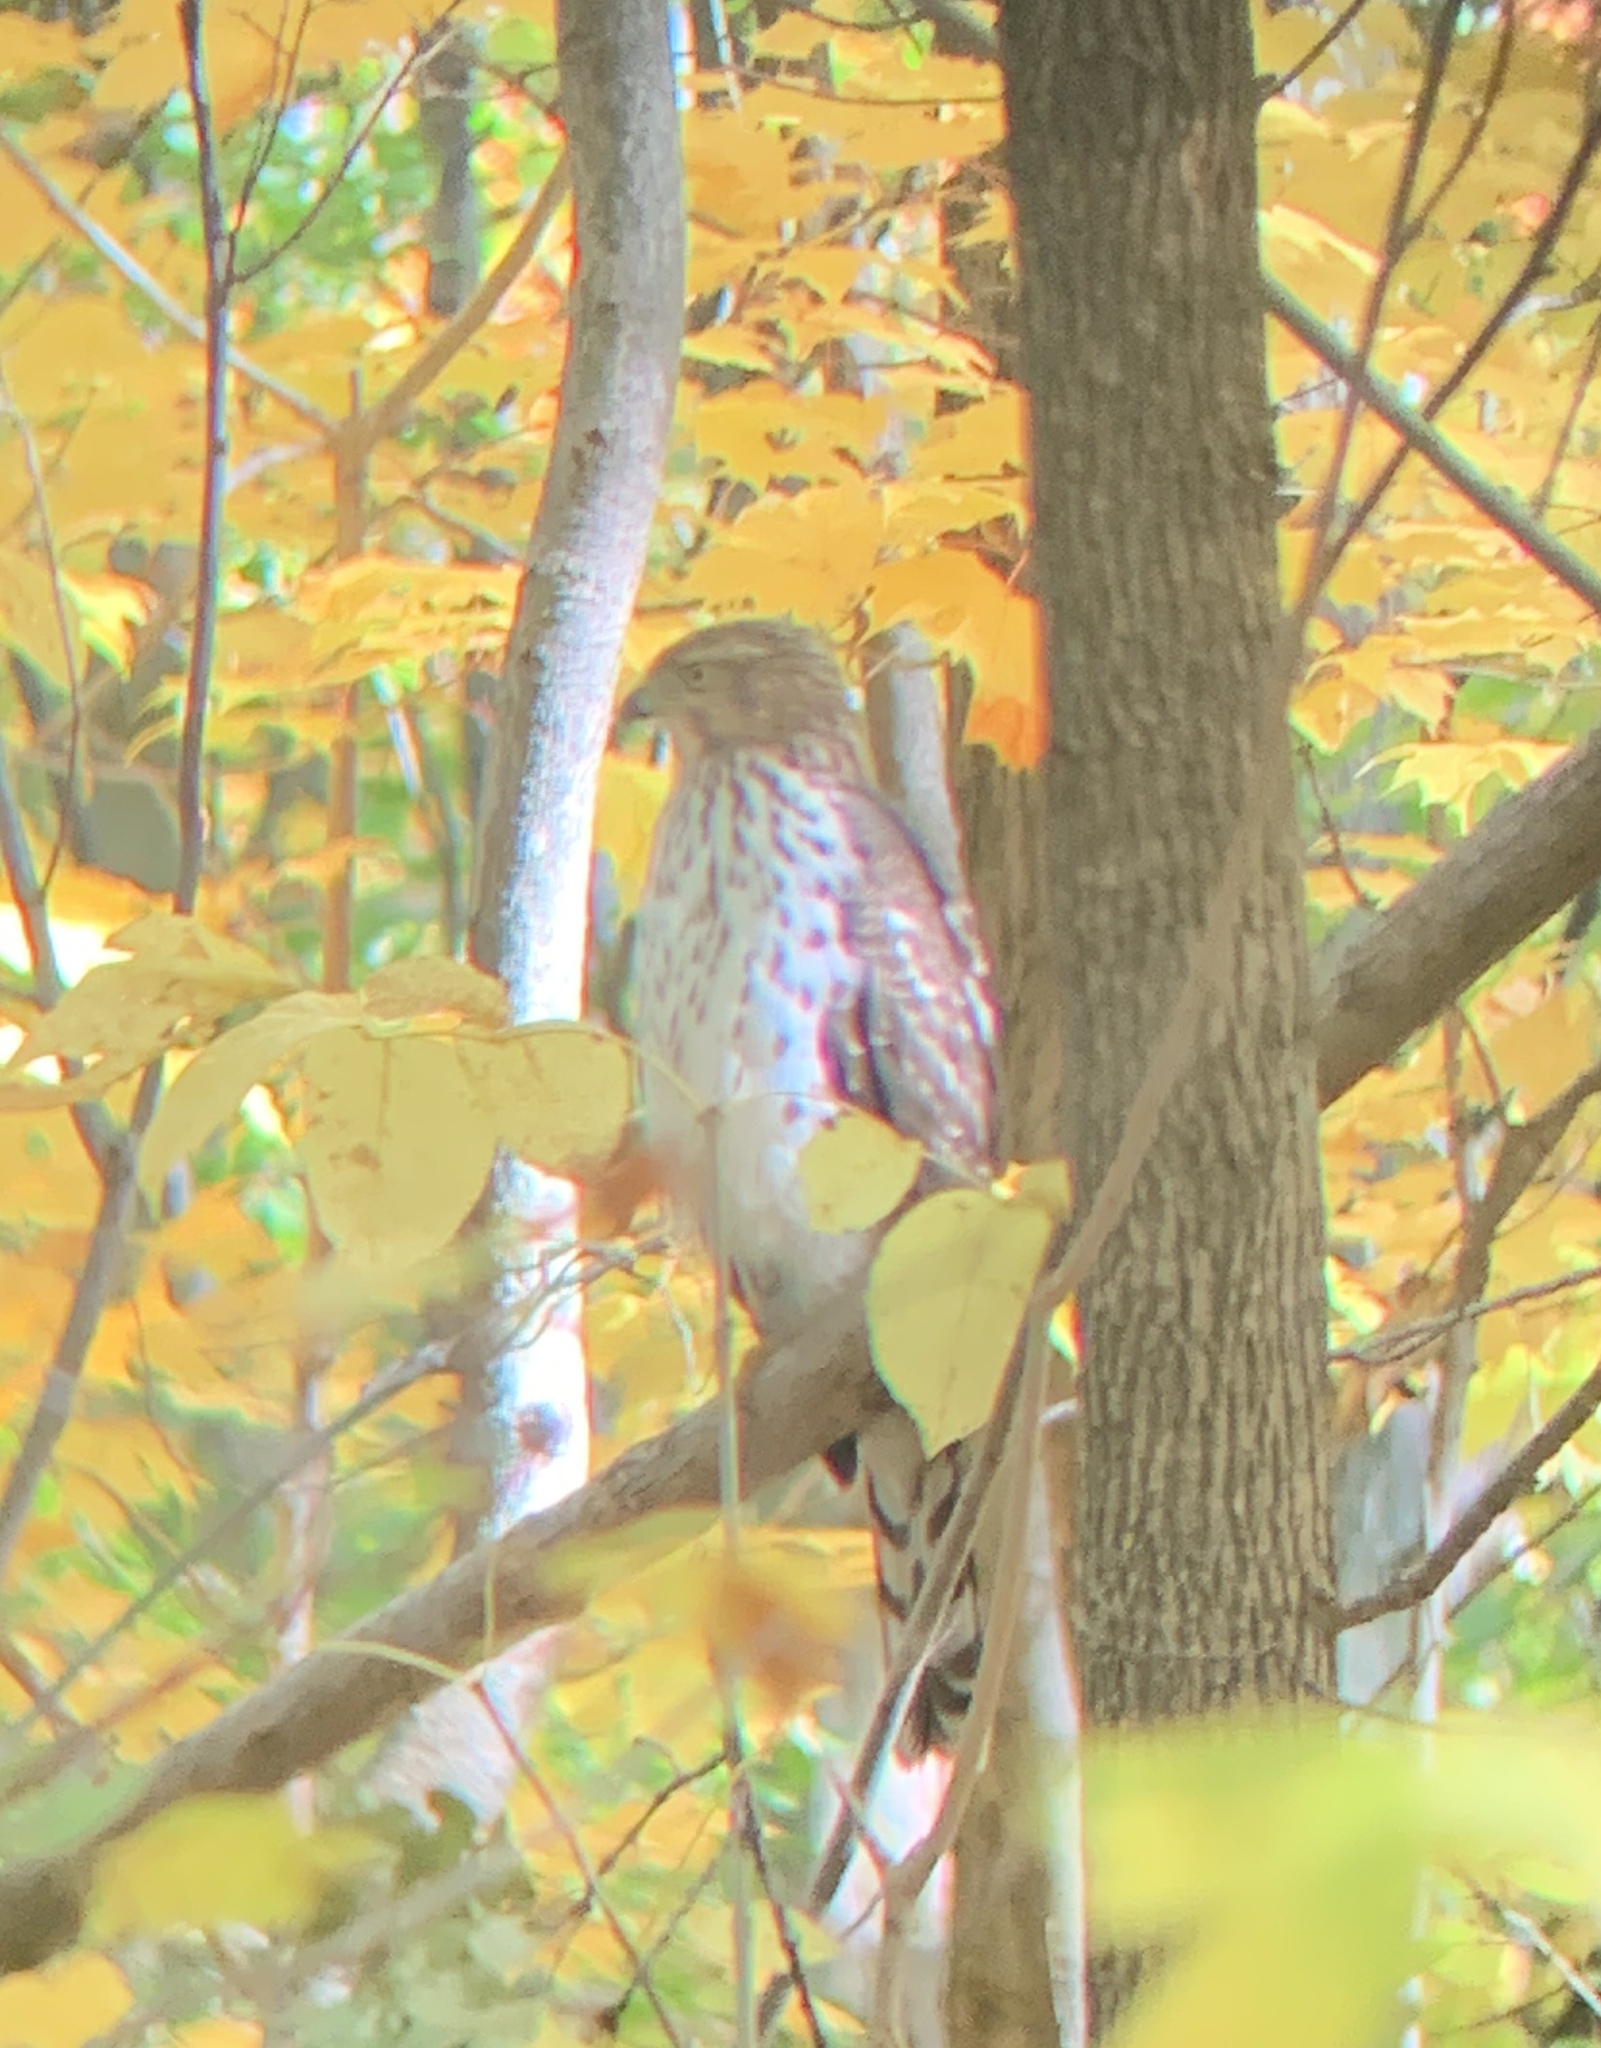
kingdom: Animalia
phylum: Chordata
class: Aves
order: Accipitriformes
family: Accipitridae
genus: Accipiter
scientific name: Accipiter cooperii
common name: Cooper's hawk
